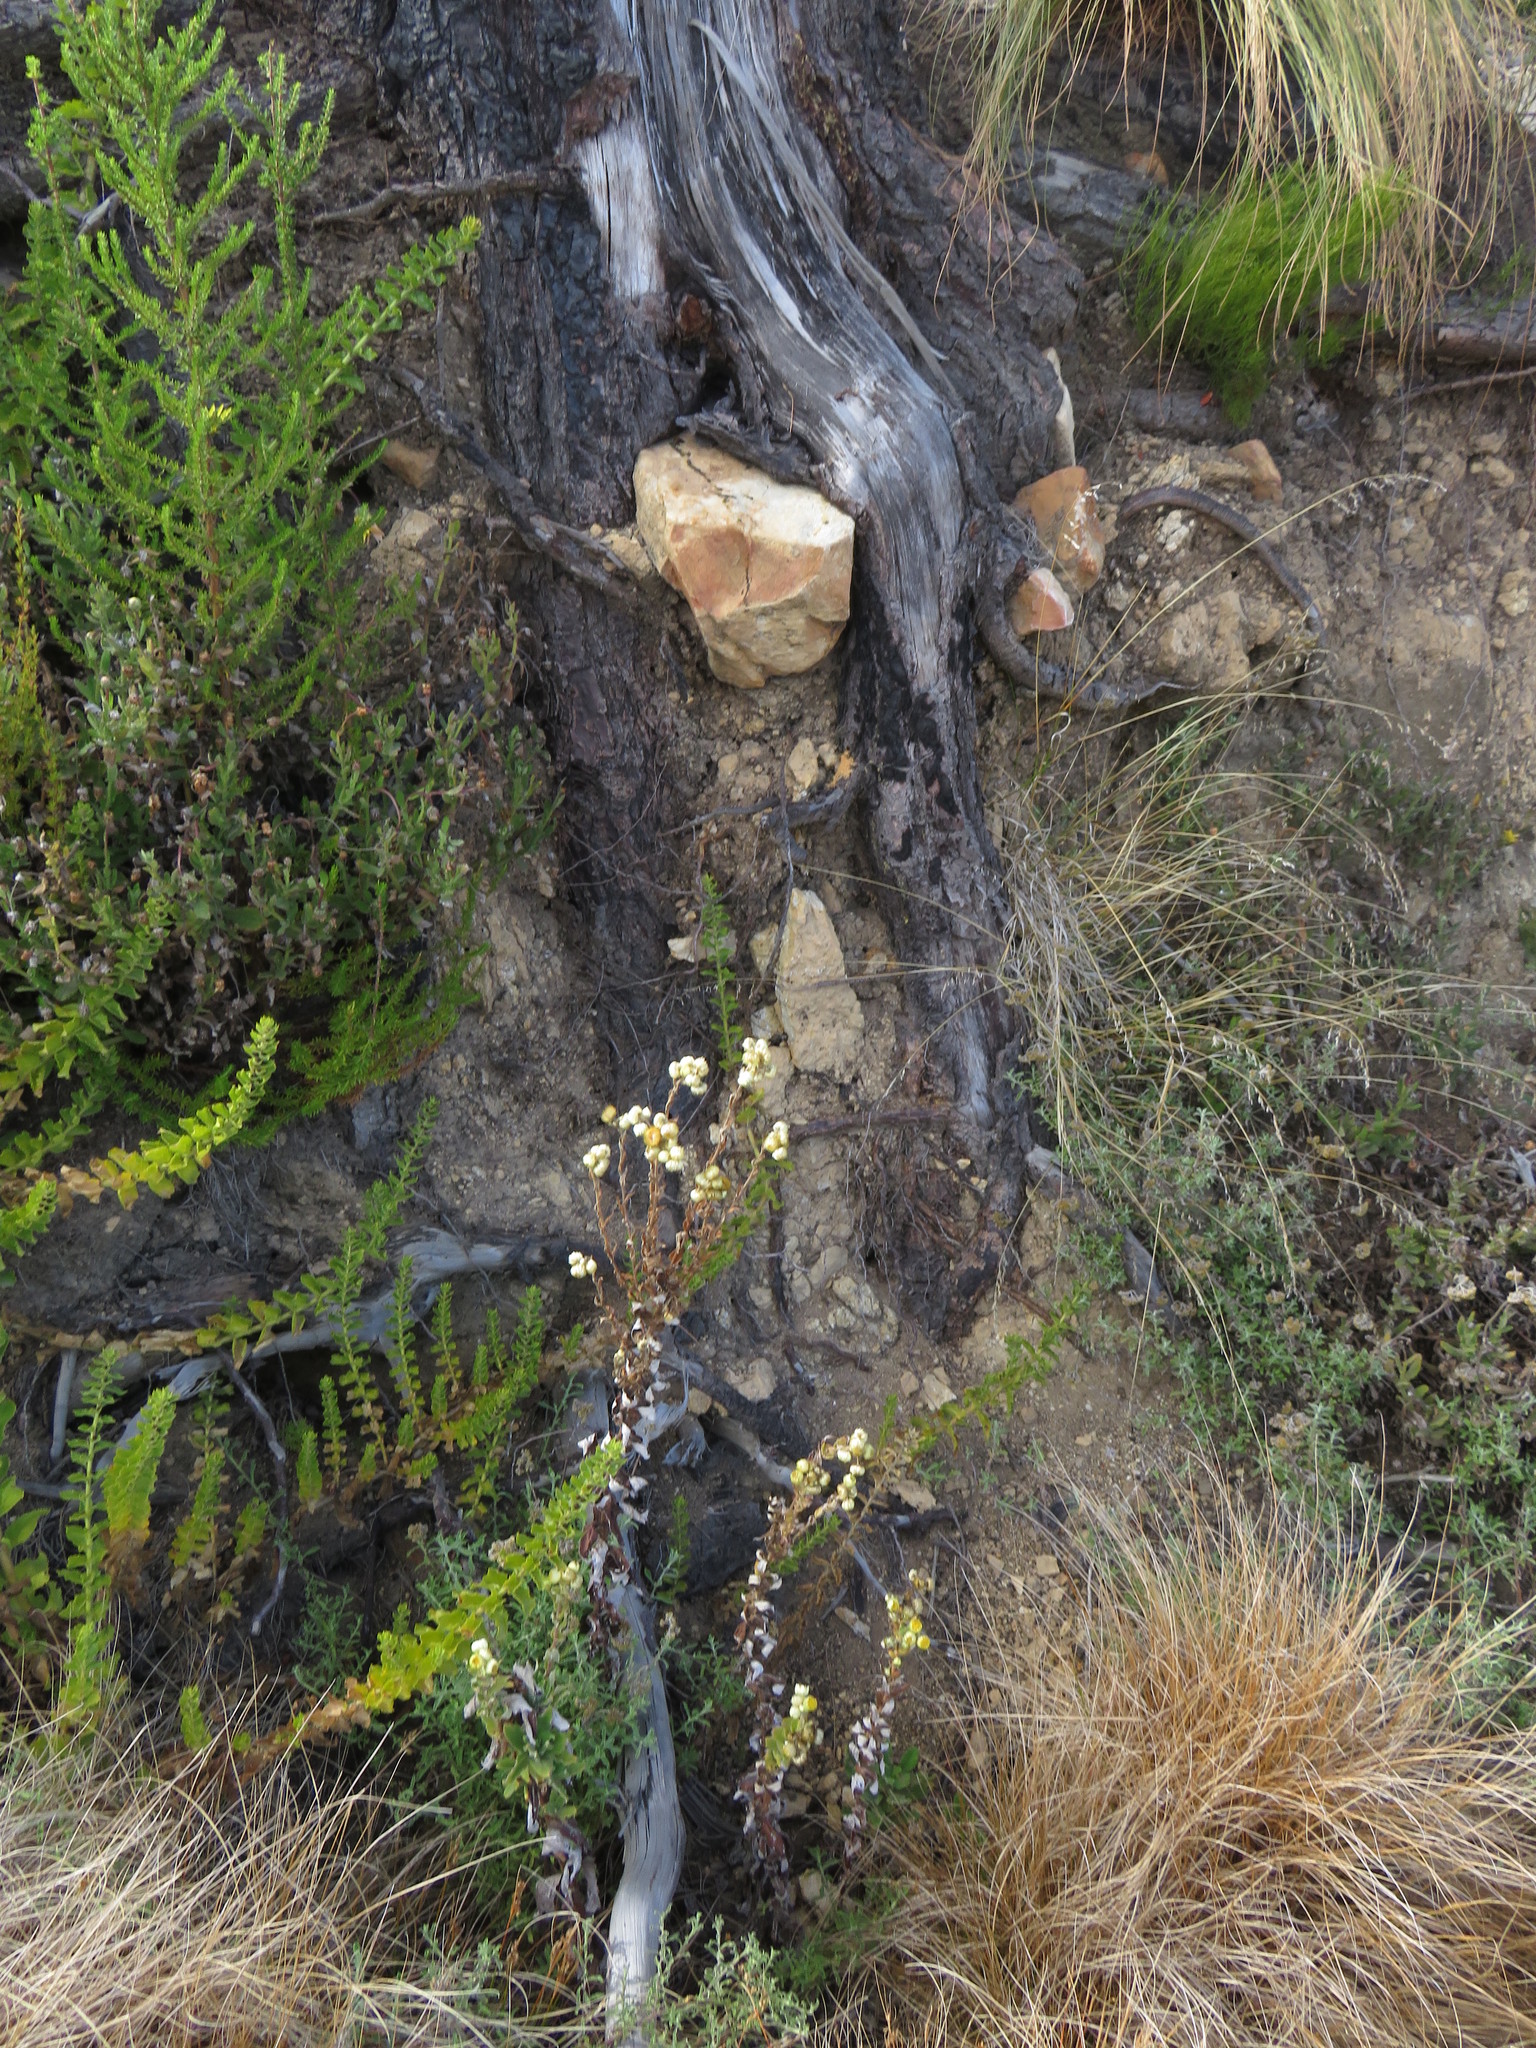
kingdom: Plantae
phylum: Tracheophyta
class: Magnoliopsida
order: Asterales
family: Asteraceae
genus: Helichrysum
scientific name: Helichrysum foetidum
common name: Stinking everlasting
